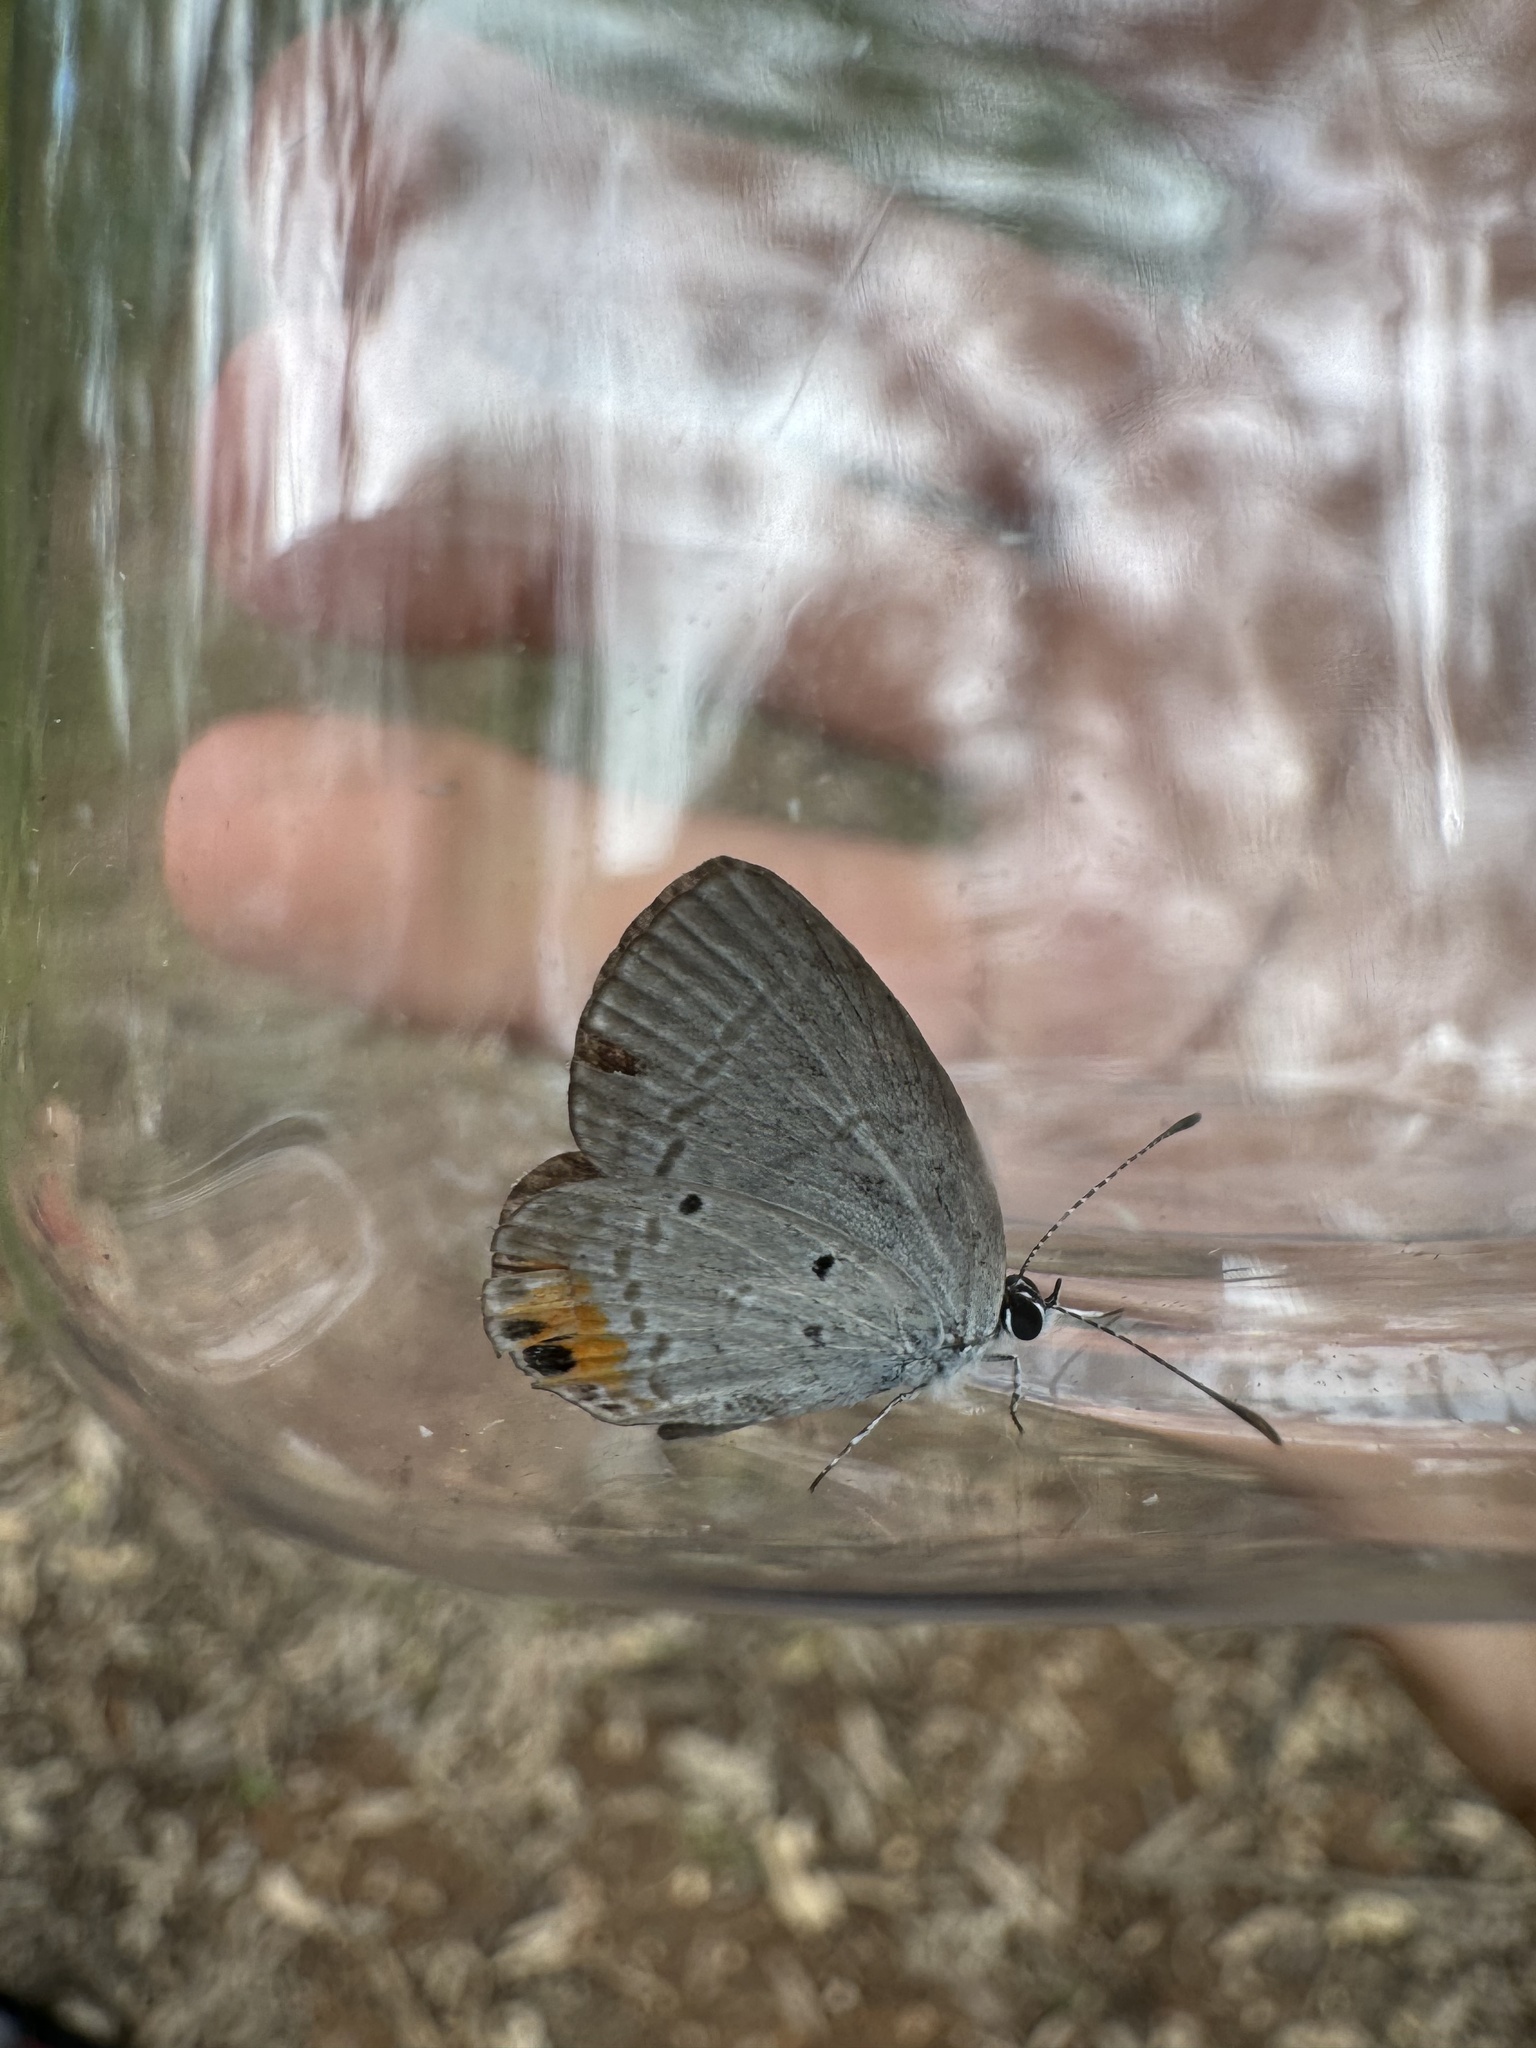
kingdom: Animalia
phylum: Arthropoda
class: Insecta
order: Lepidoptera
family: Lycaenidae
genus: Everes
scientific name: Everes lacturnus
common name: Orange-tipped pea-blue
